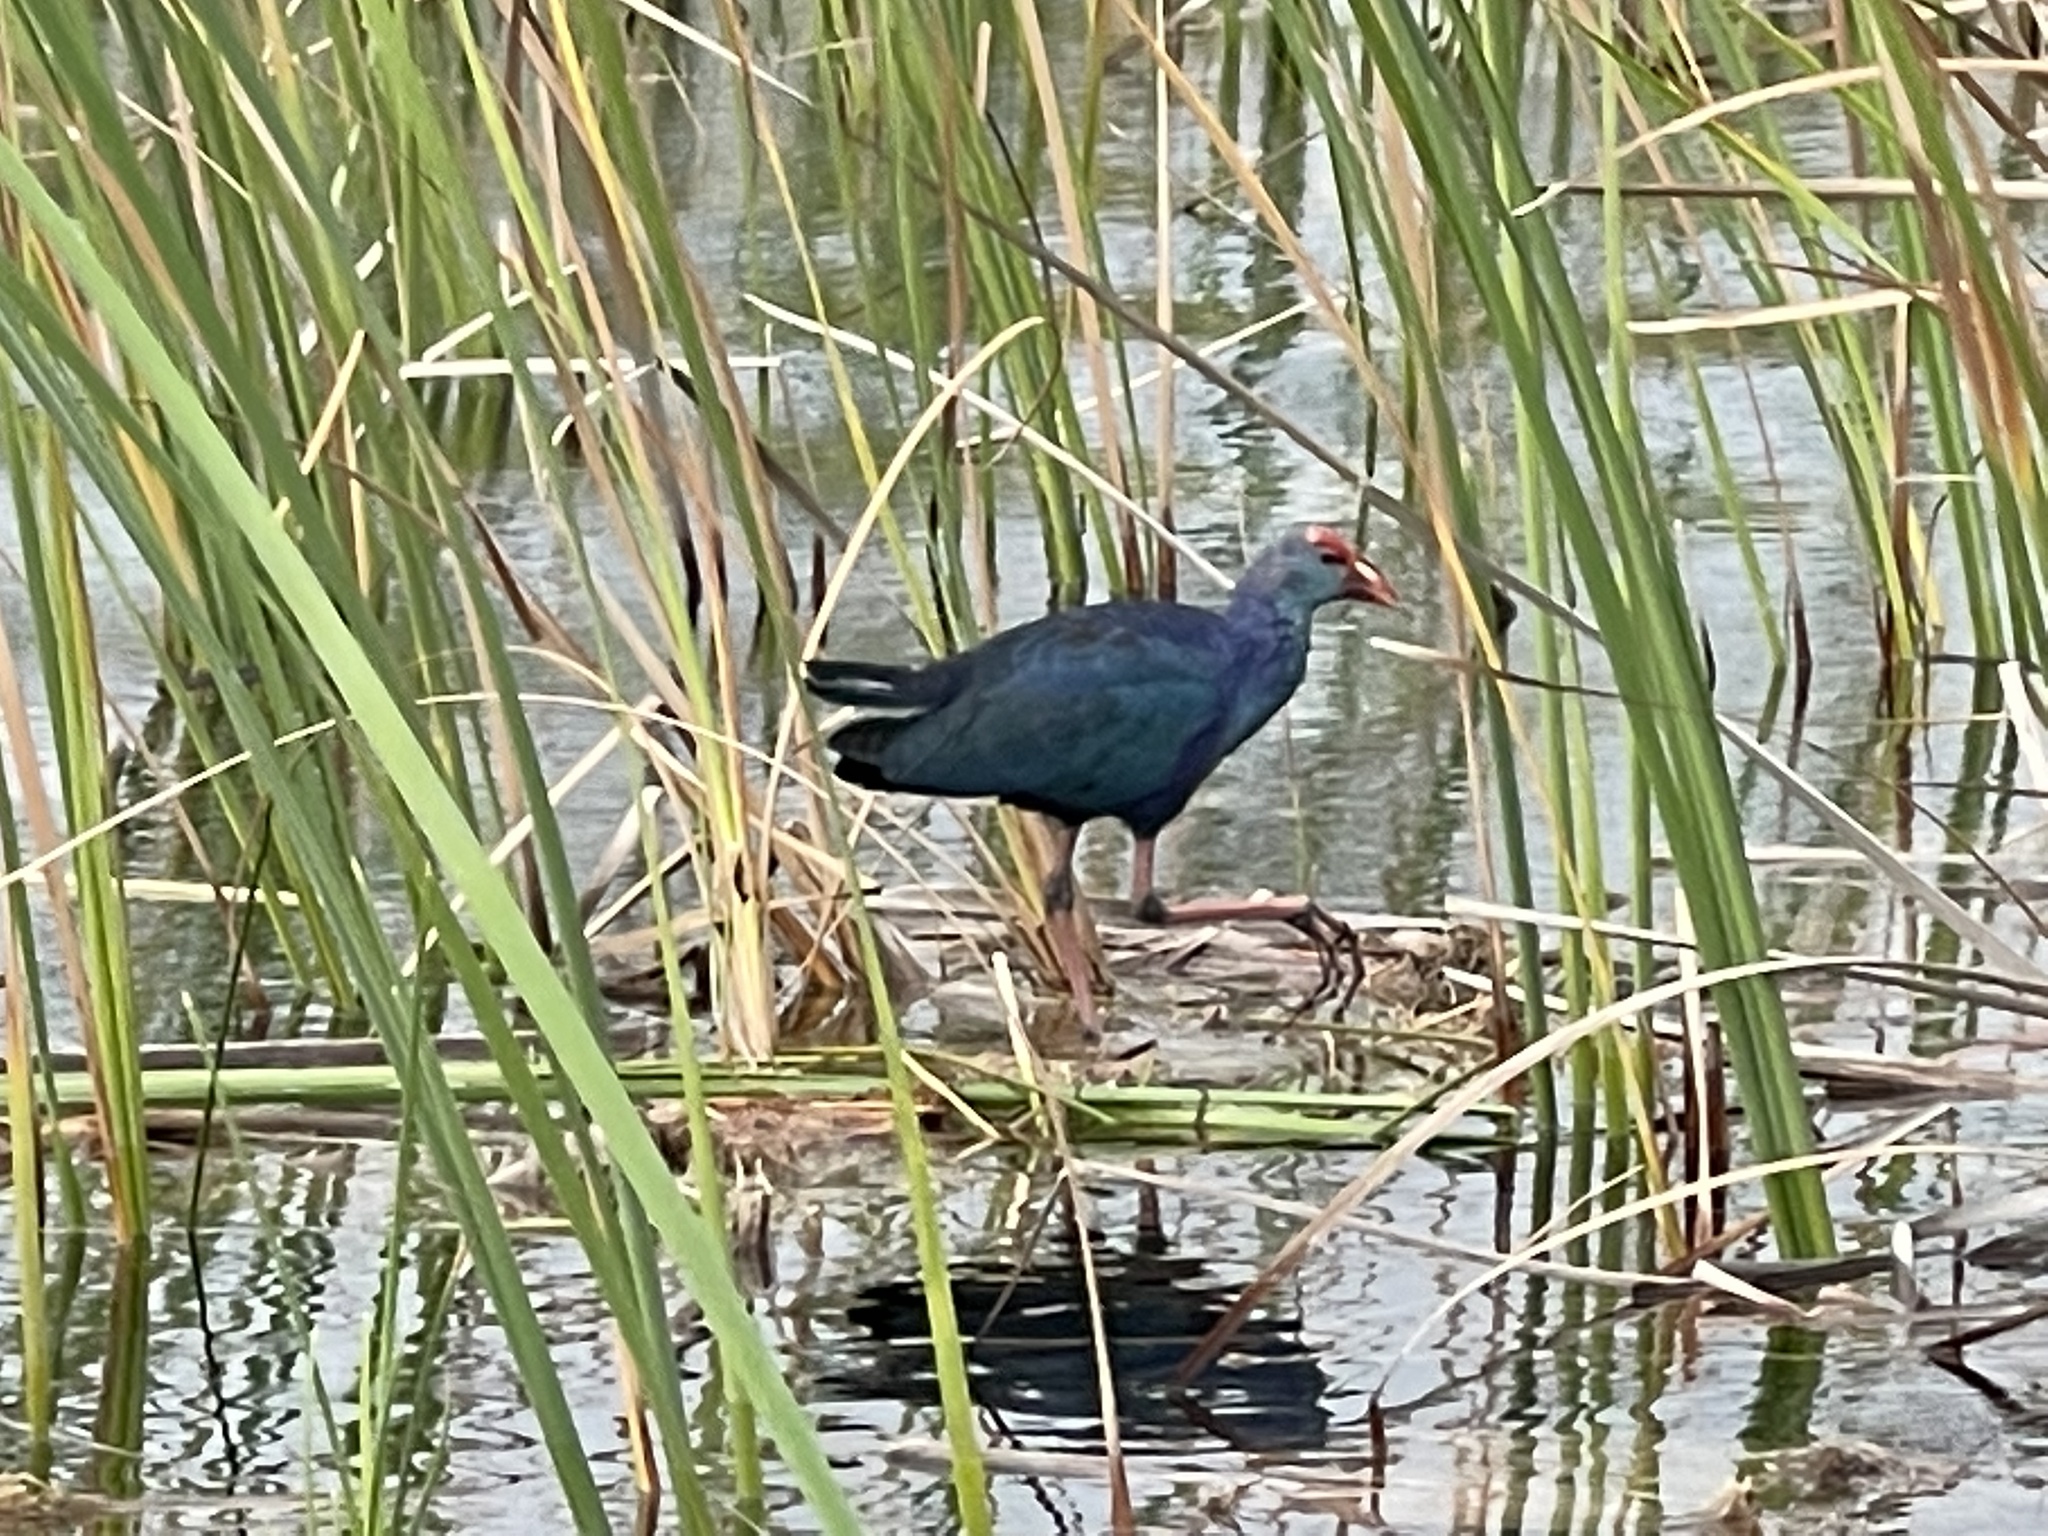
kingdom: Animalia
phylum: Chordata
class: Aves
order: Gruiformes
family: Rallidae
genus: Porphyrio
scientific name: Porphyrio porphyrio
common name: Purple swamphen
